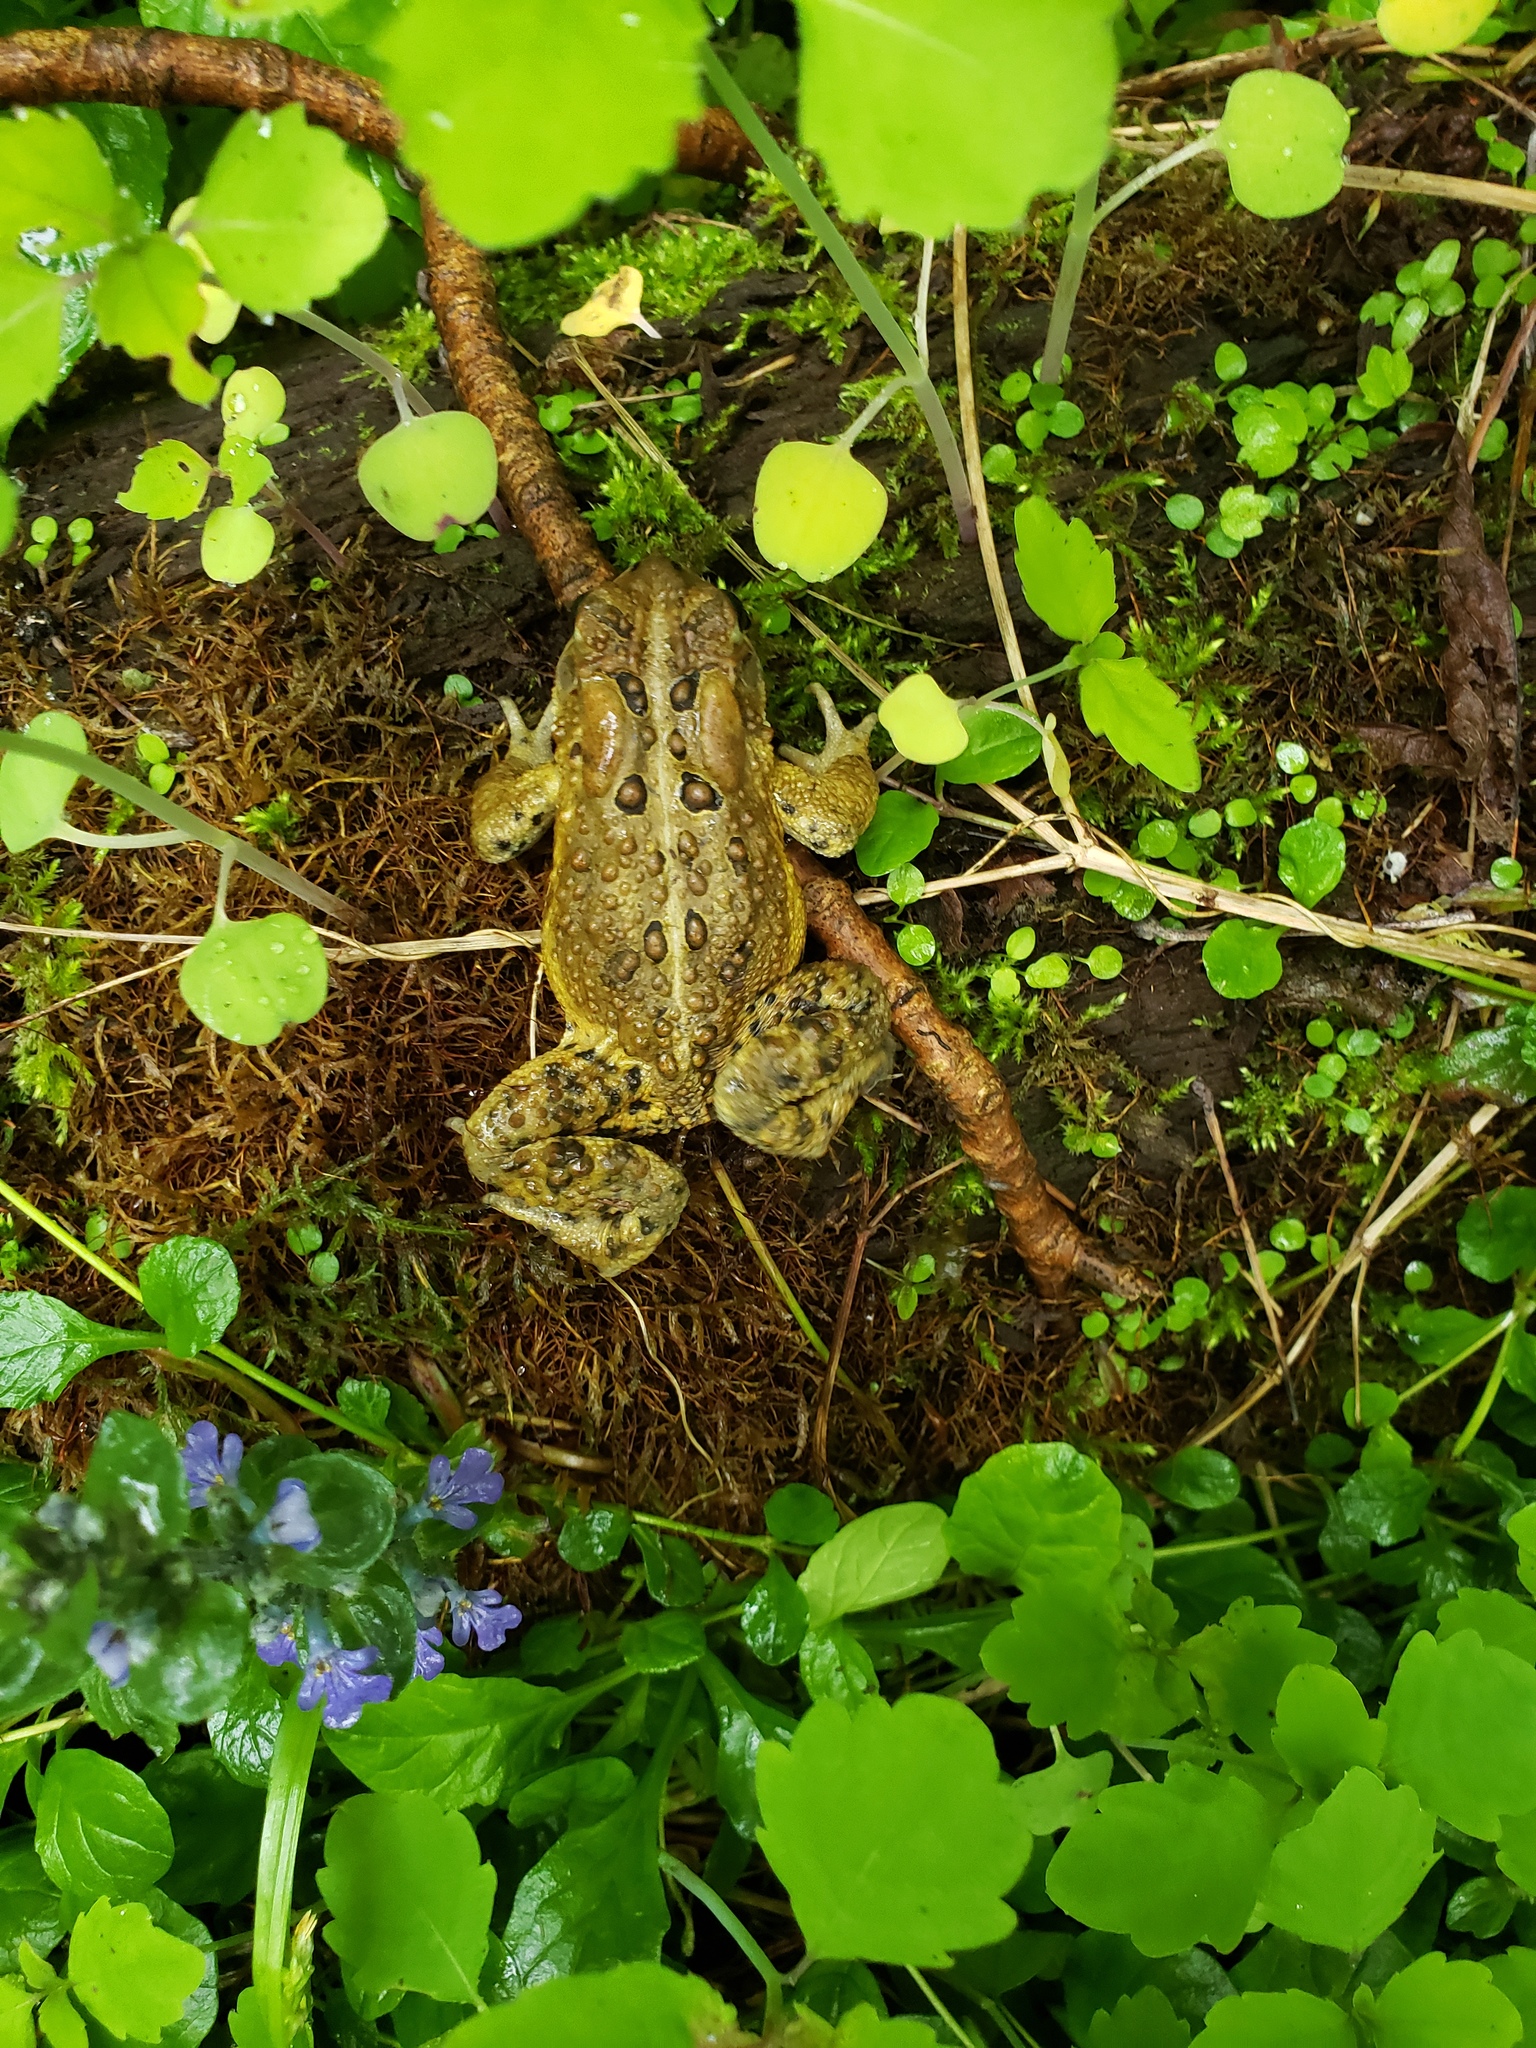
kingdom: Animalia
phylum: Chordata
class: Amphibia
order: Anura
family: Bufonidae
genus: Anaxyrus
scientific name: Anaxyrus americanus
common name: American toad
